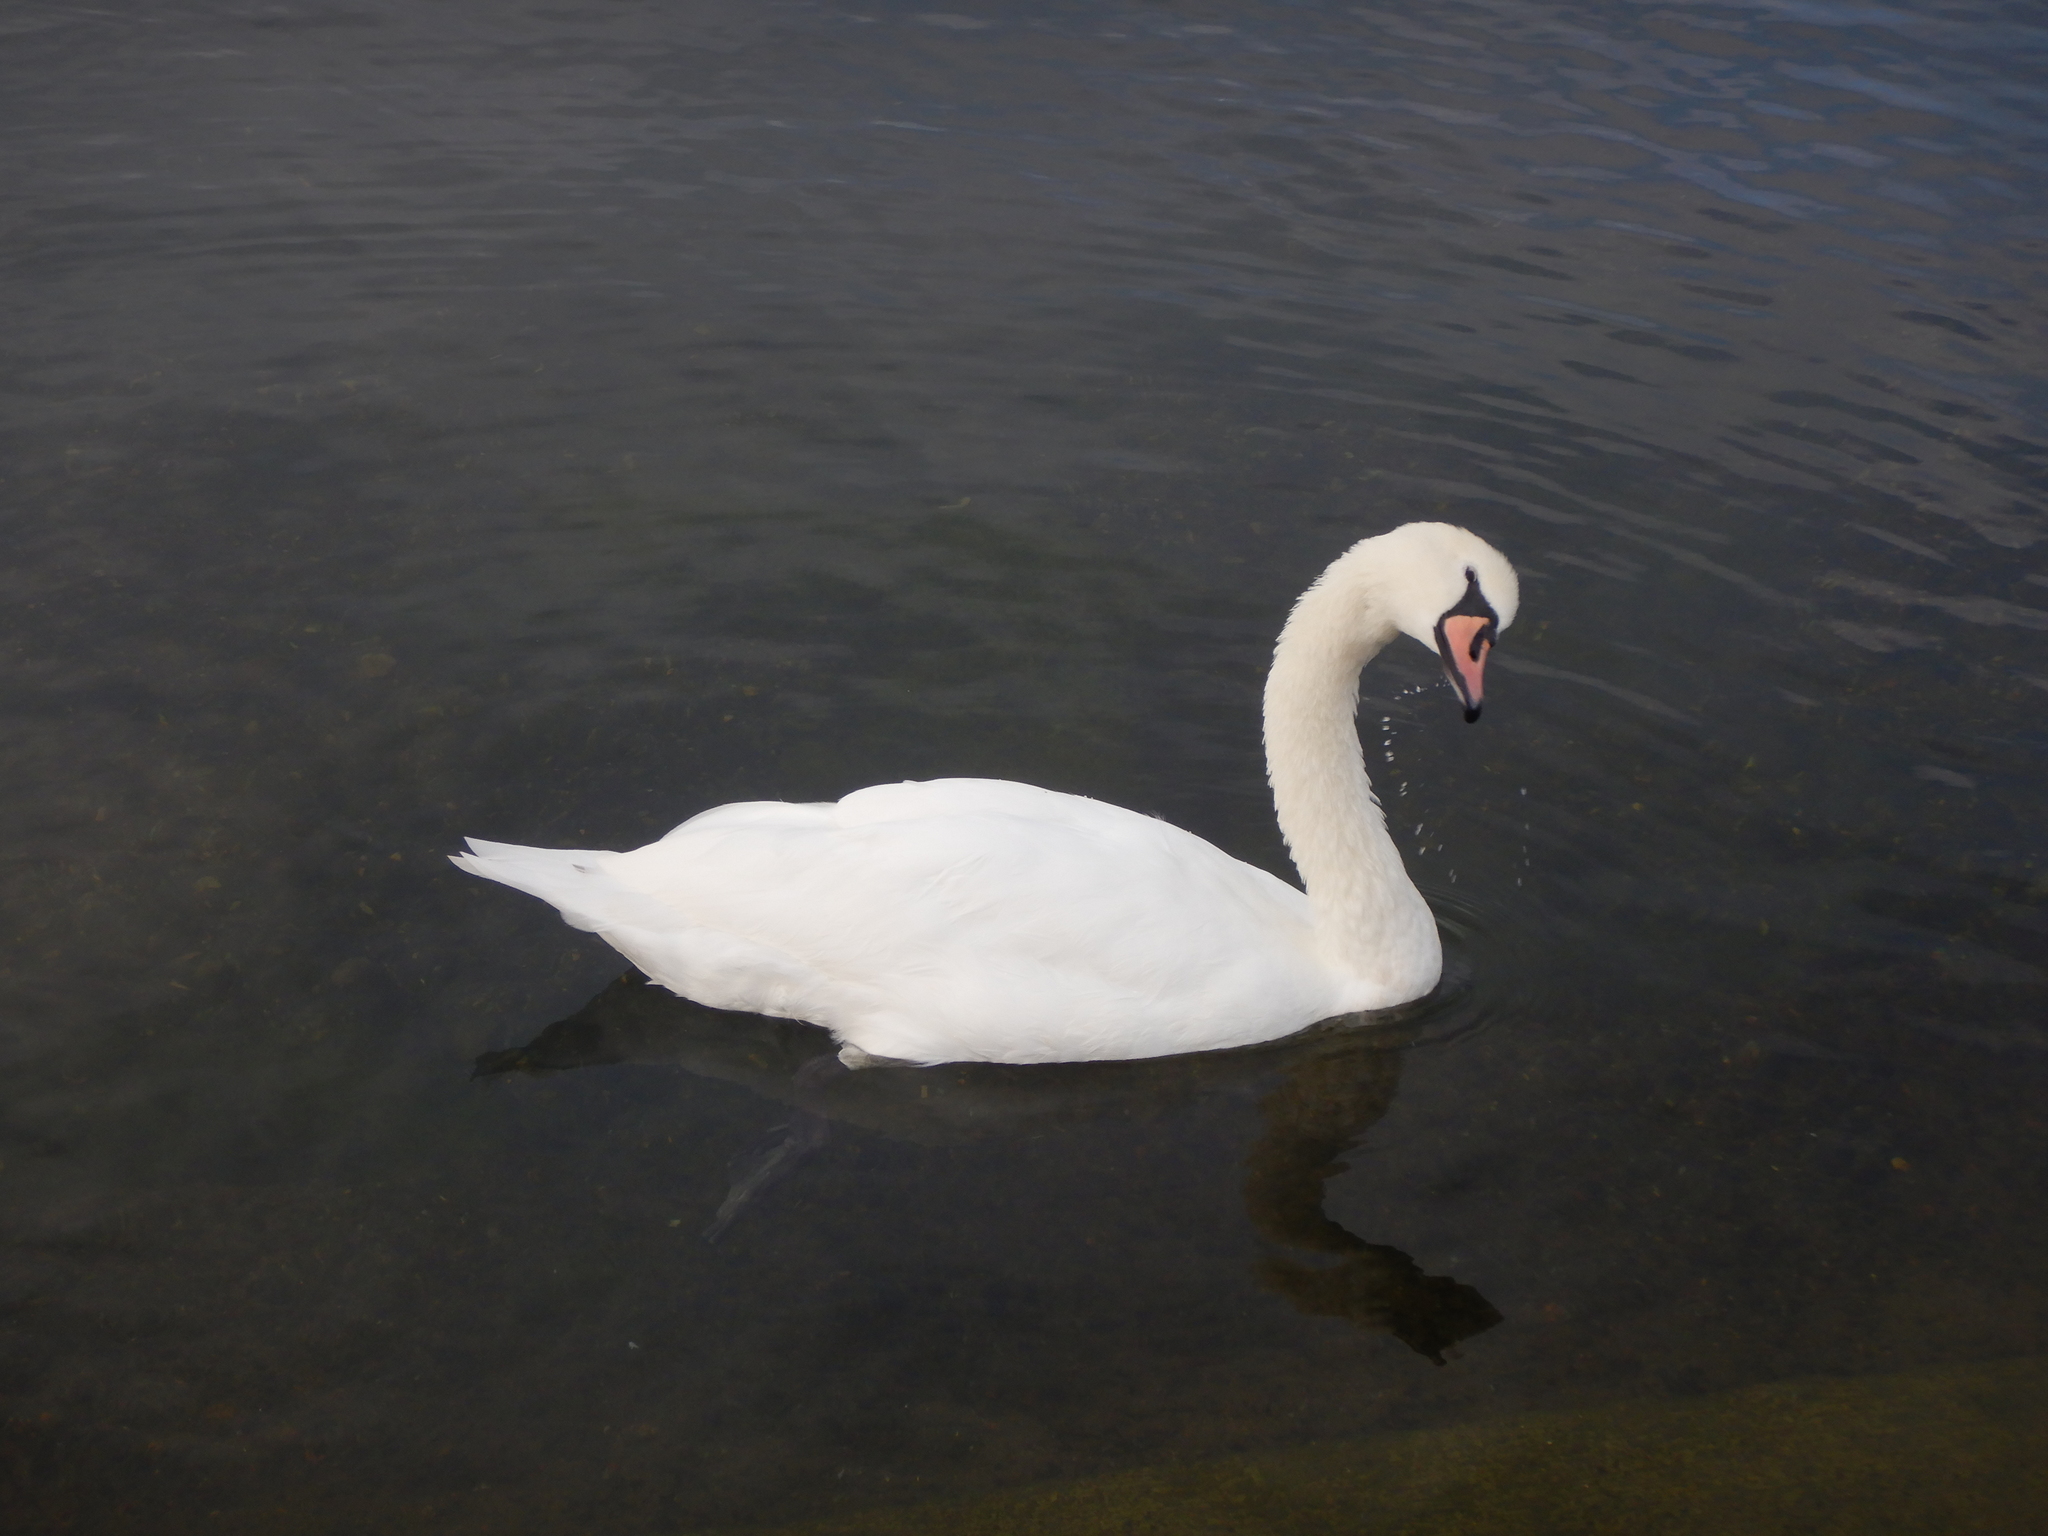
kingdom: Animalia
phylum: Chordata
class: Aves
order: Anseriformes
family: Anatidae
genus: Cygnus
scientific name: Cygnus olor
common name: Mute swan
